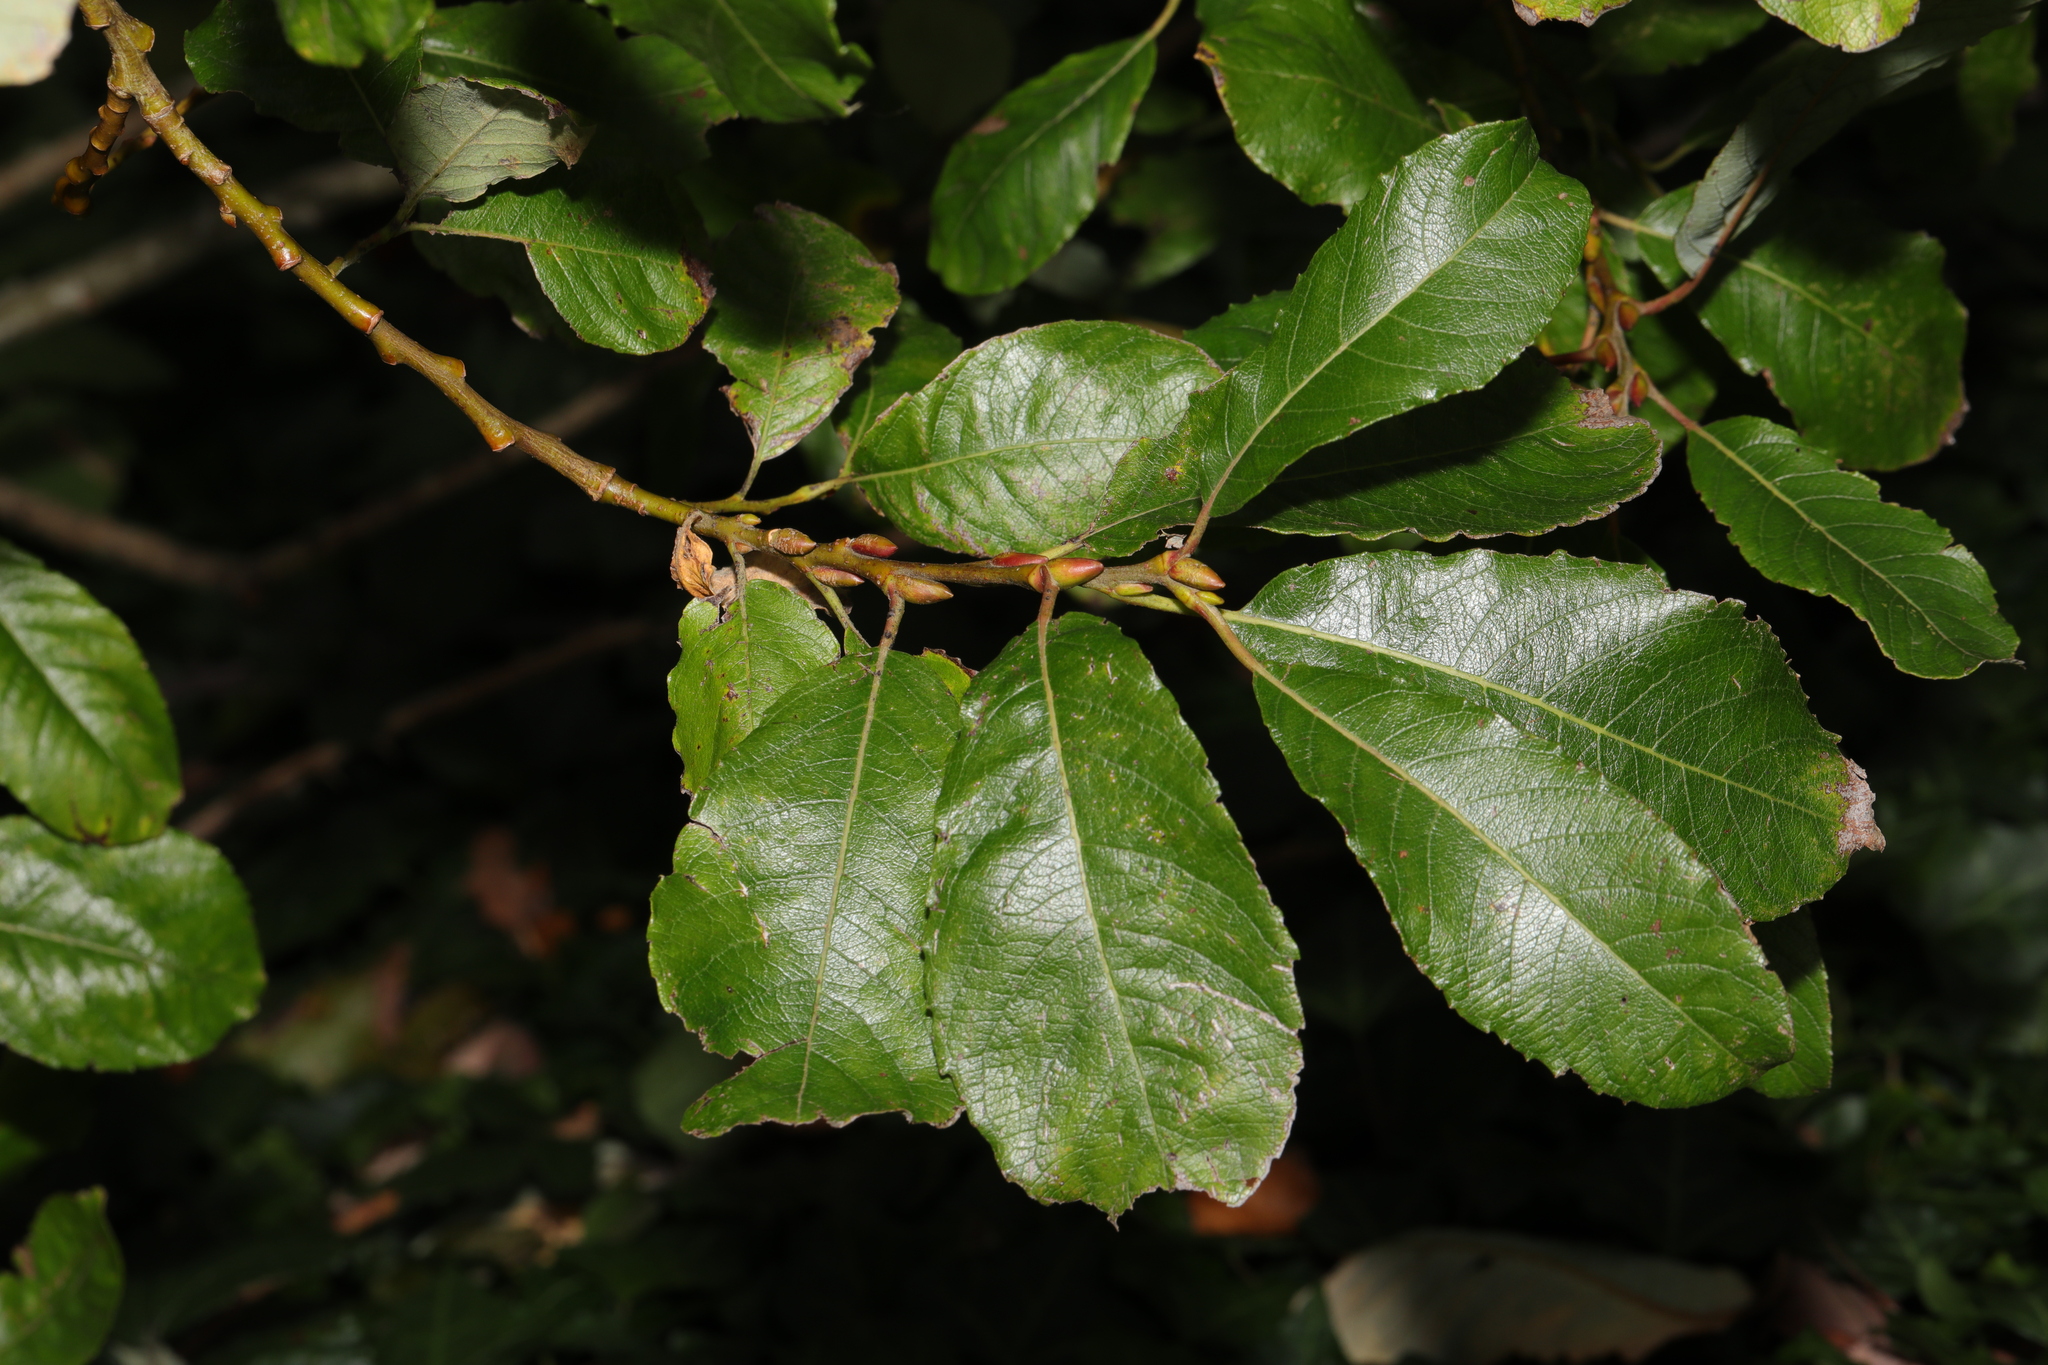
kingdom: Plantae
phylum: Tracheophyta
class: Magnoliopsida
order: Malpighiales
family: Salicaceae
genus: Salix
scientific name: Salix caprea
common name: Goat willow
